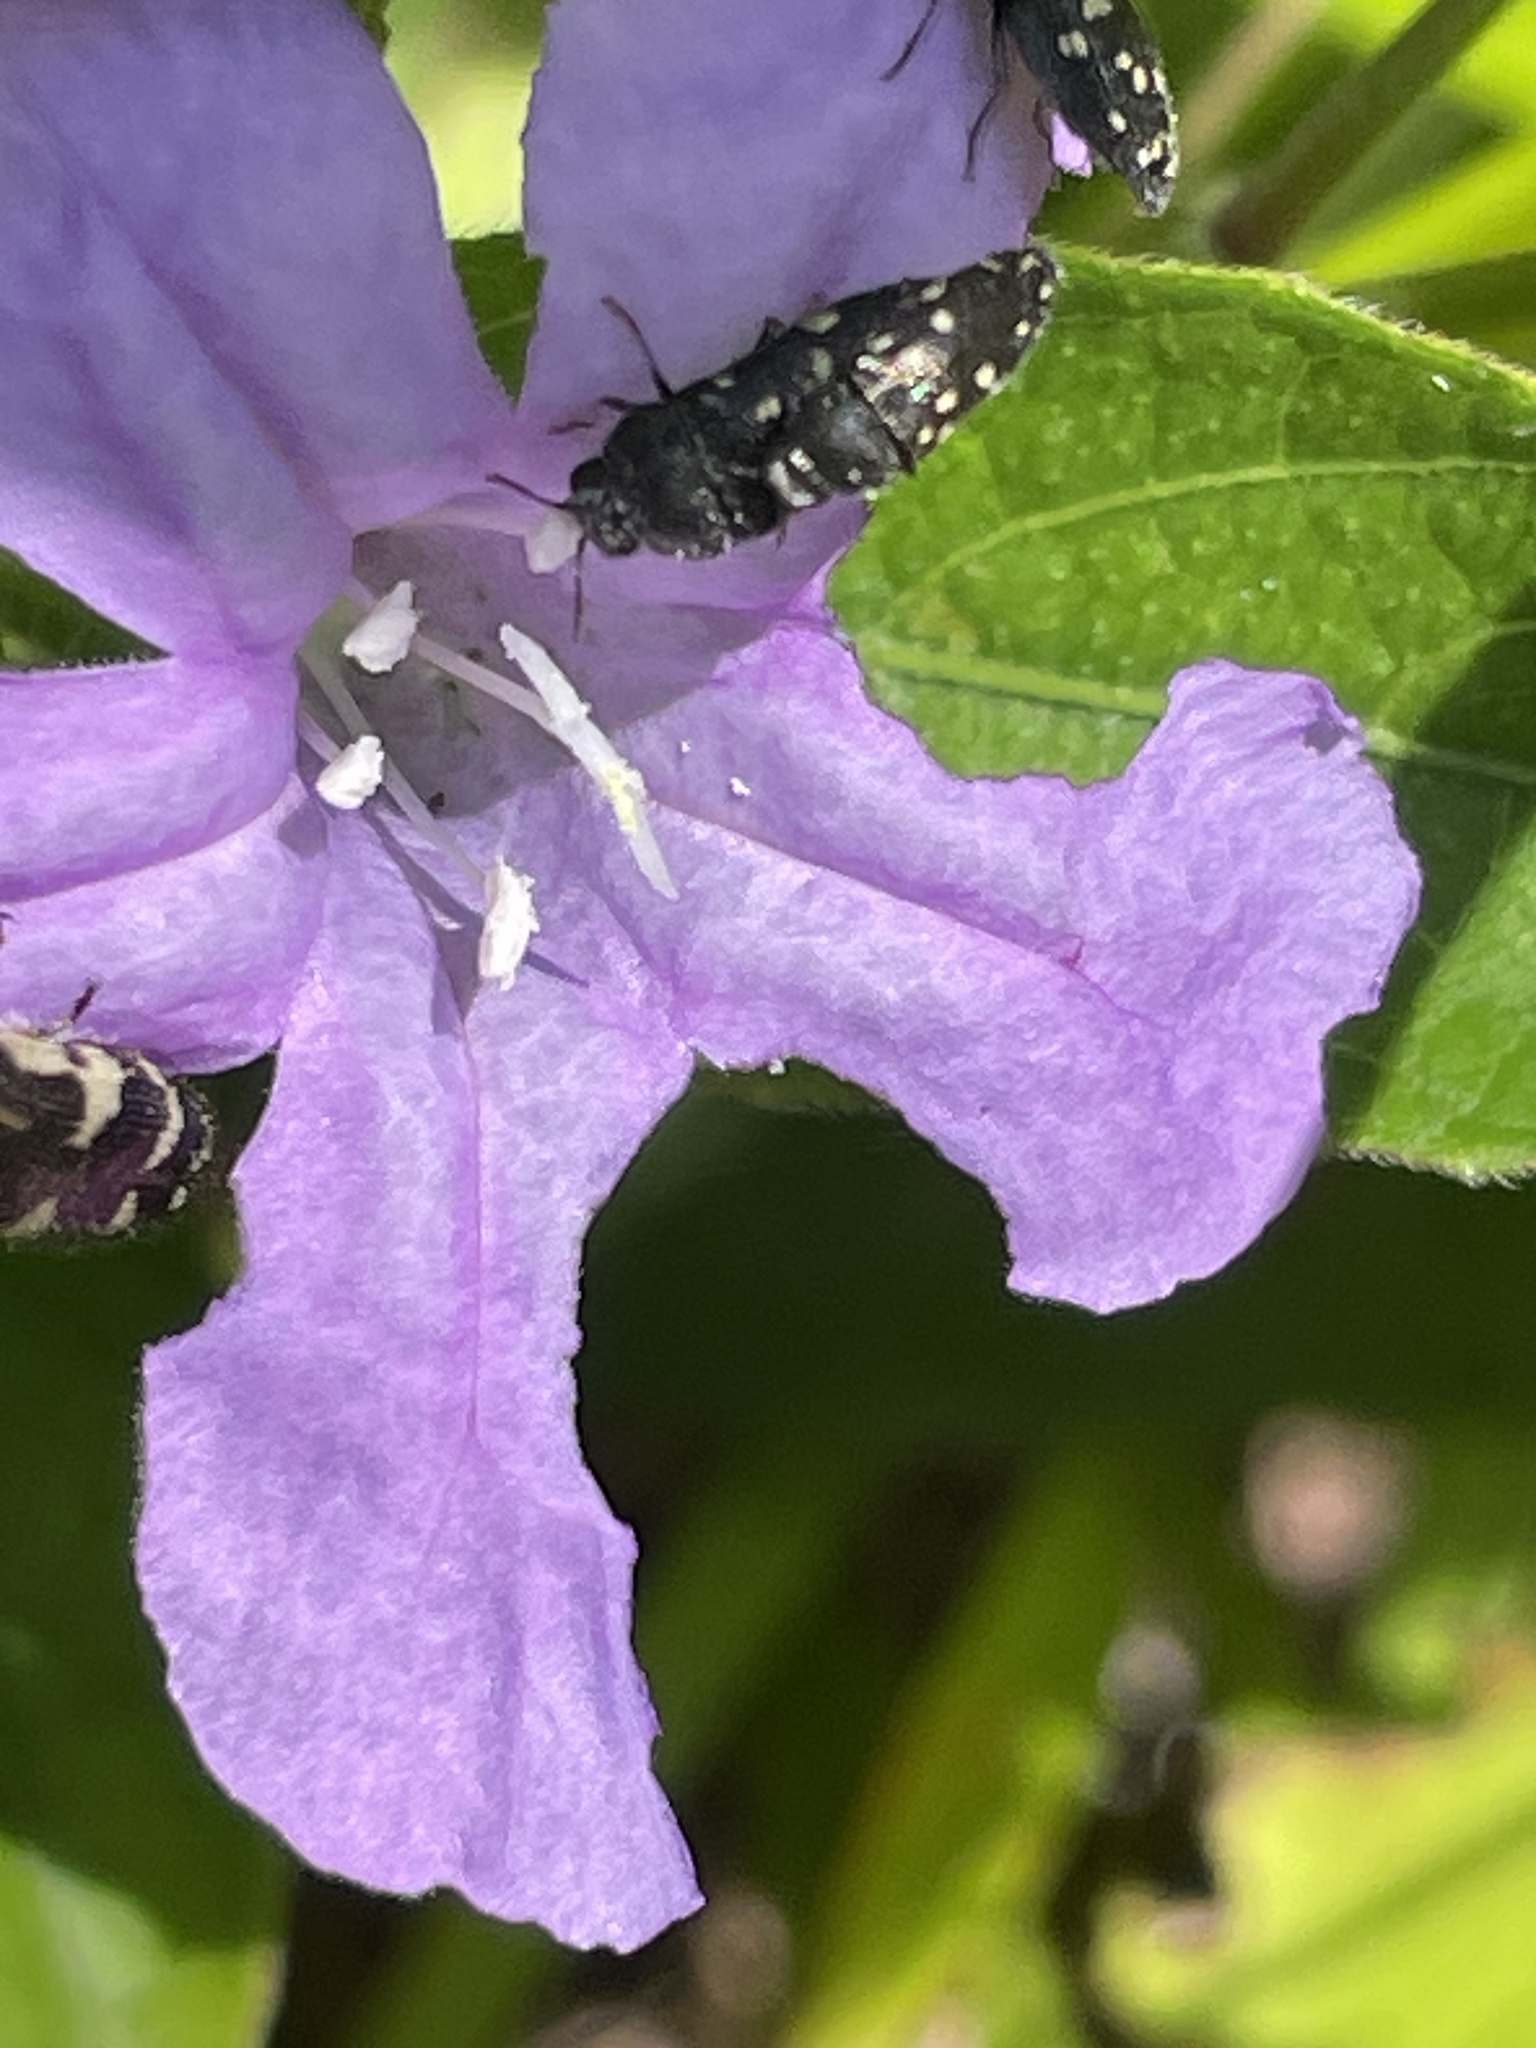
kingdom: Plantae
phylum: Tracheophyta
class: Magnoliopsida
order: Lamiales
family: Acanthaceae
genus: Ruellia
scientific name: Ruellia caroliniensis
